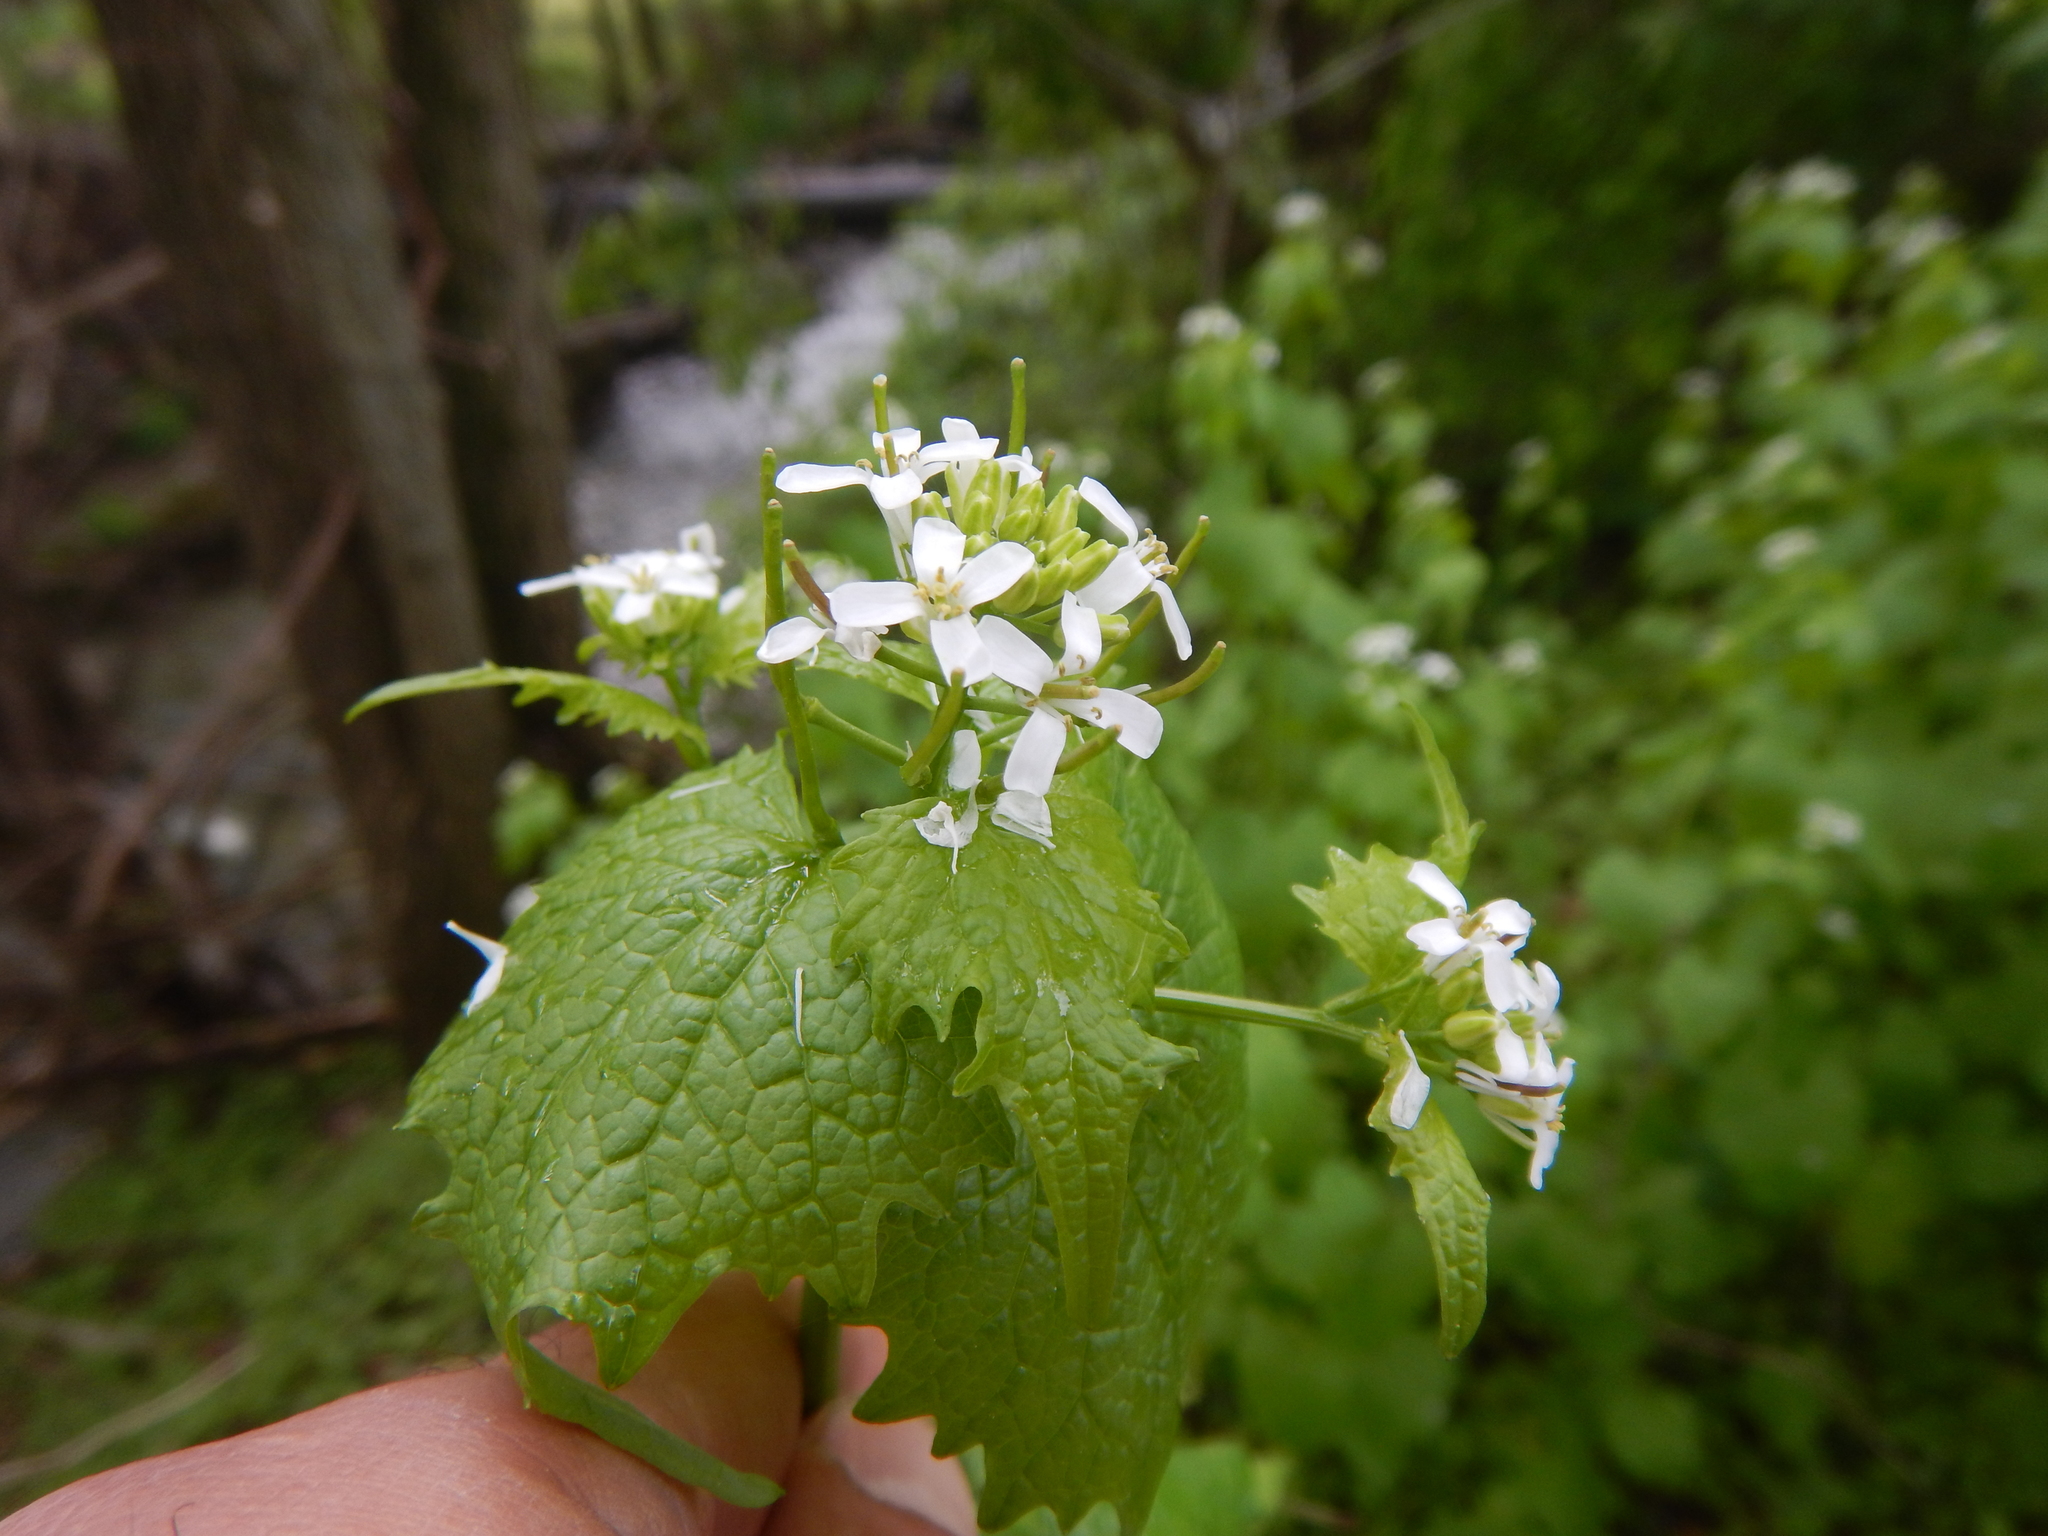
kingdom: Plantae
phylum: Tracheophyta
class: Magnoliopsida
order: Brassicales
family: Brassicaceae
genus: Alliaria
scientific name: Alliaria petiolata
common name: Garlic mustard
